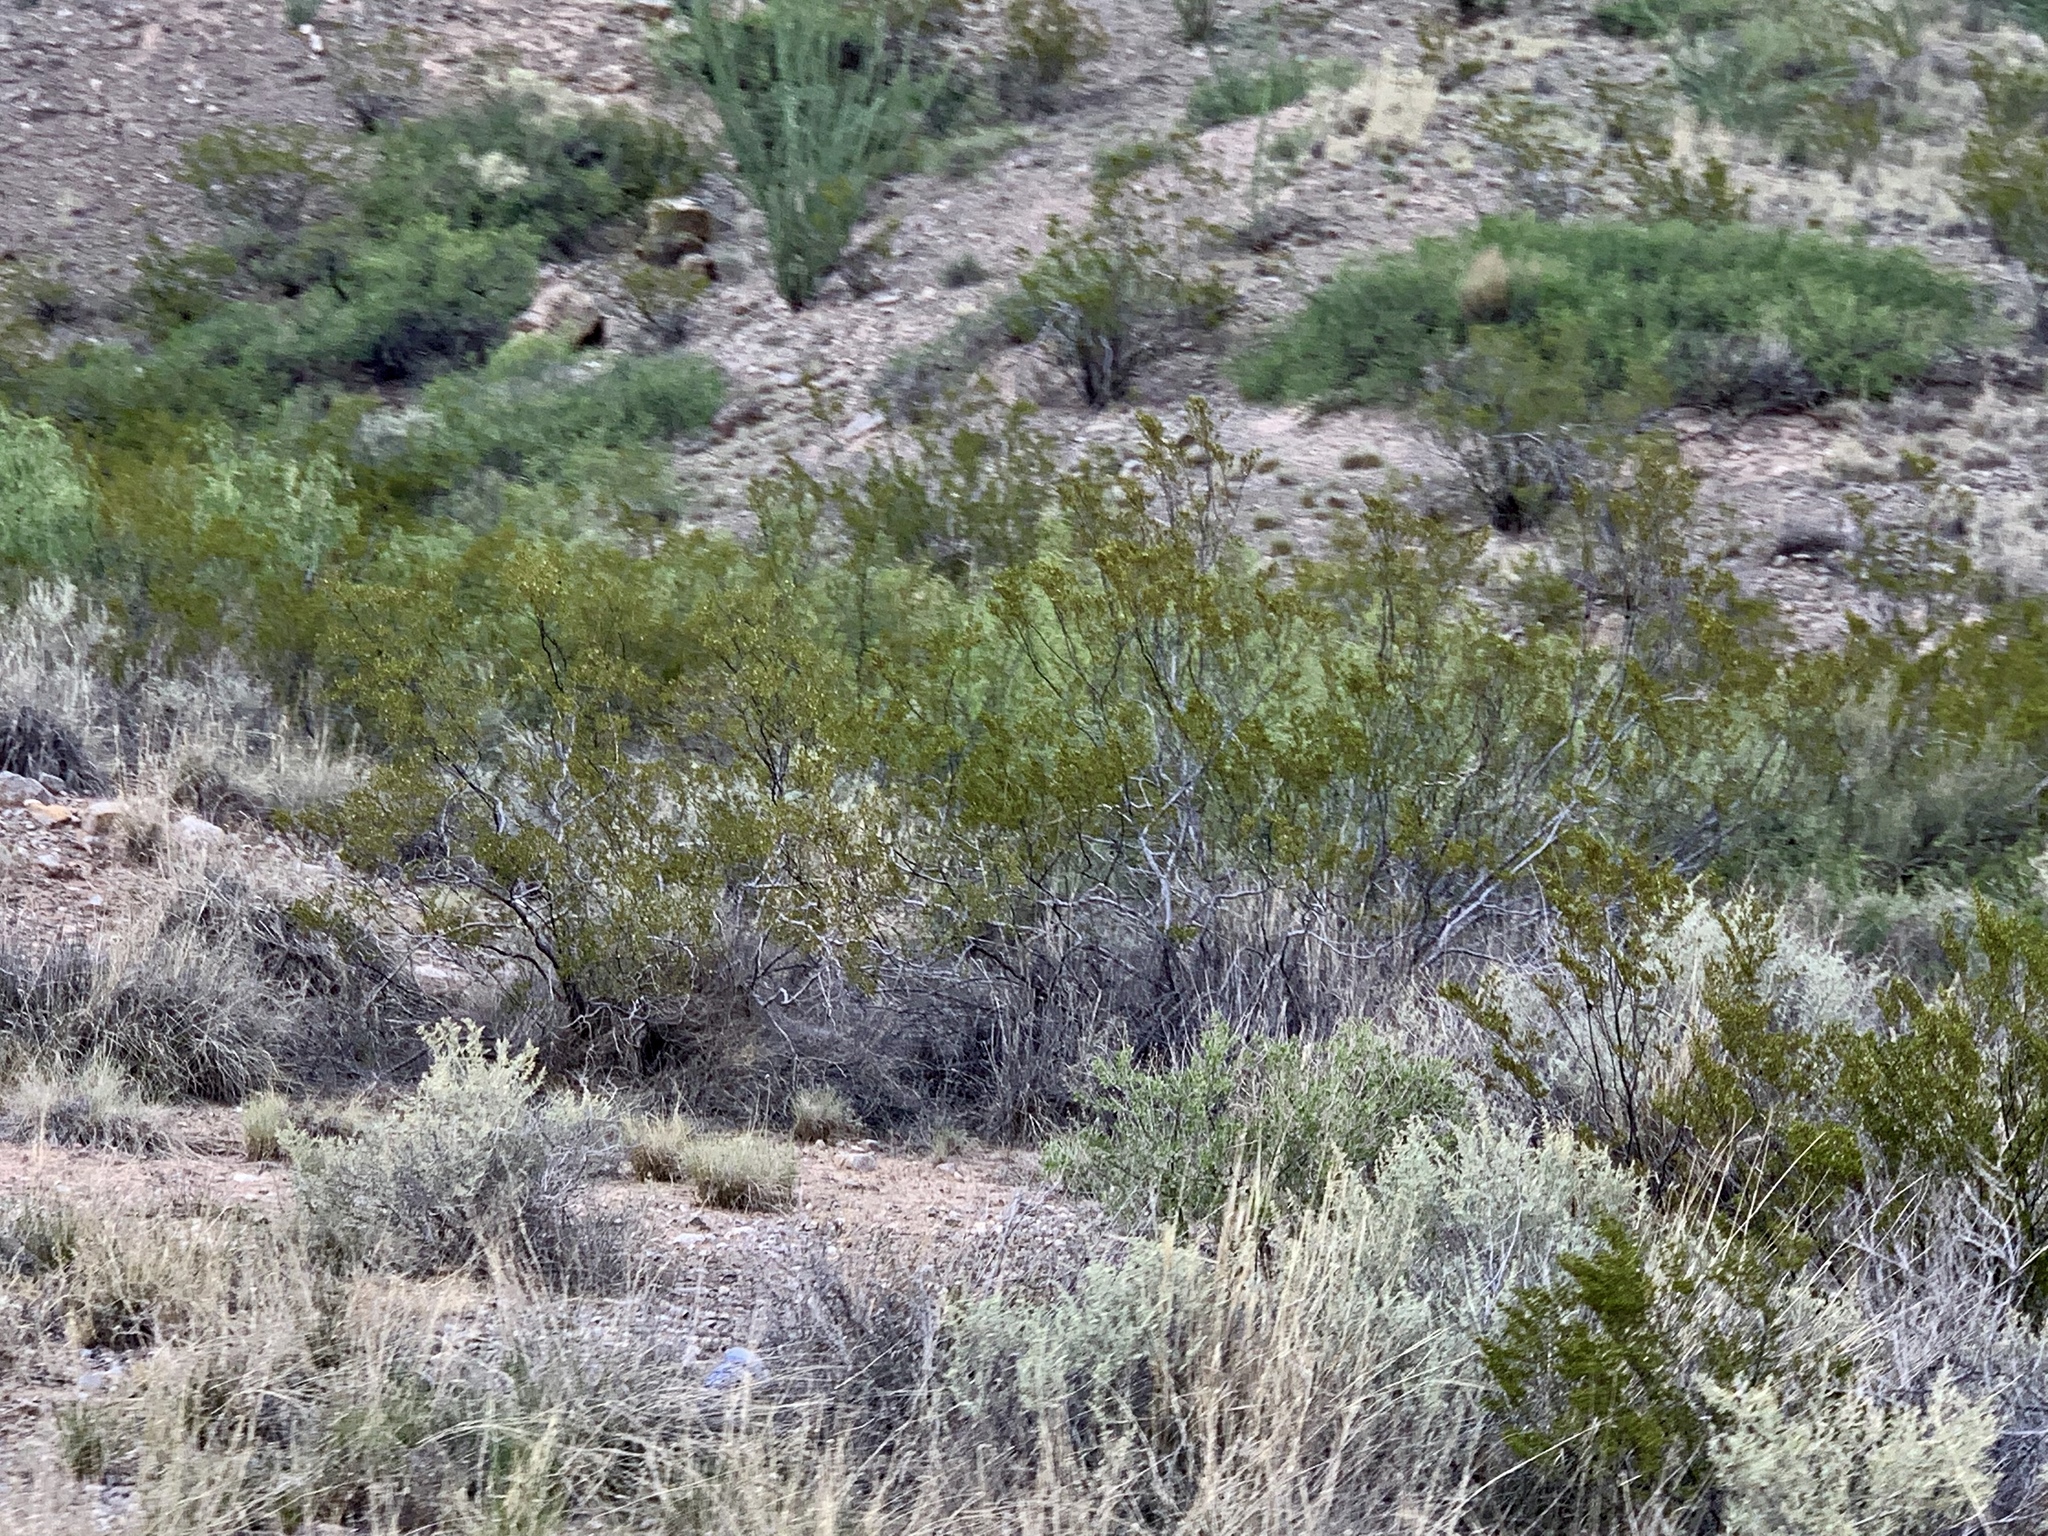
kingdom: Plantae
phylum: Tracheophyta
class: Magnoliopsida
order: Zygophyllales
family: Zygophyllaceae
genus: Larrea
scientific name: Larrea tridentata
